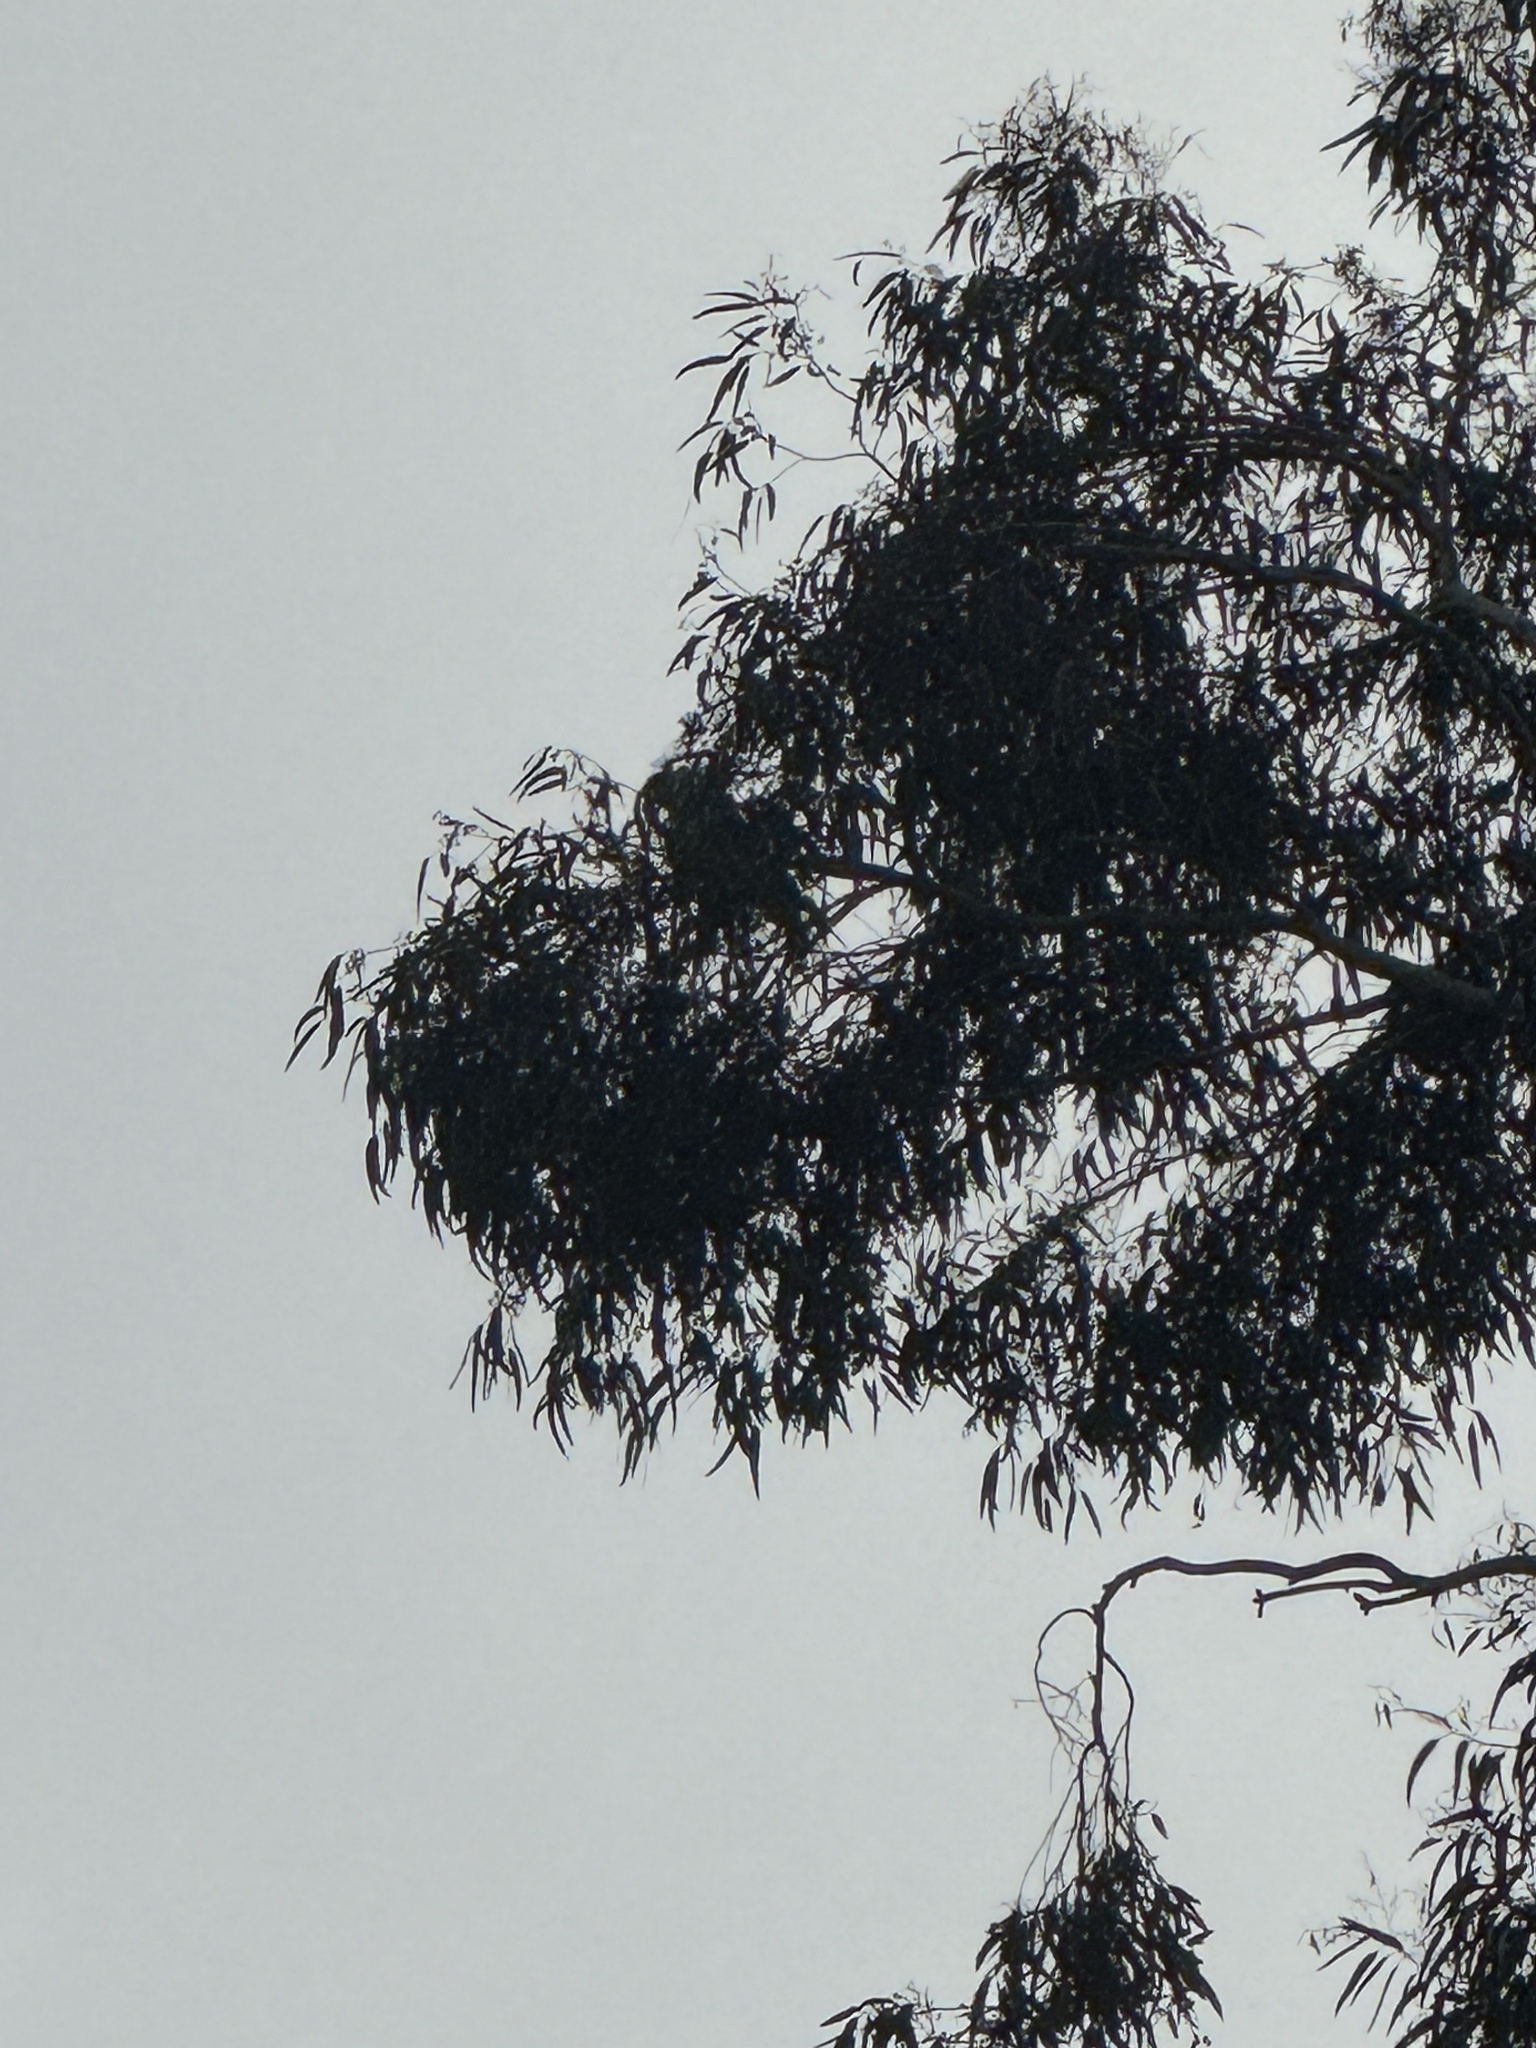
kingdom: Animalia
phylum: Chordata
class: Aves
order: Accipitriformes
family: Accipitridae
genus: Buteo
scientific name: Buteo jamaicensis
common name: Red-tailed hawk
